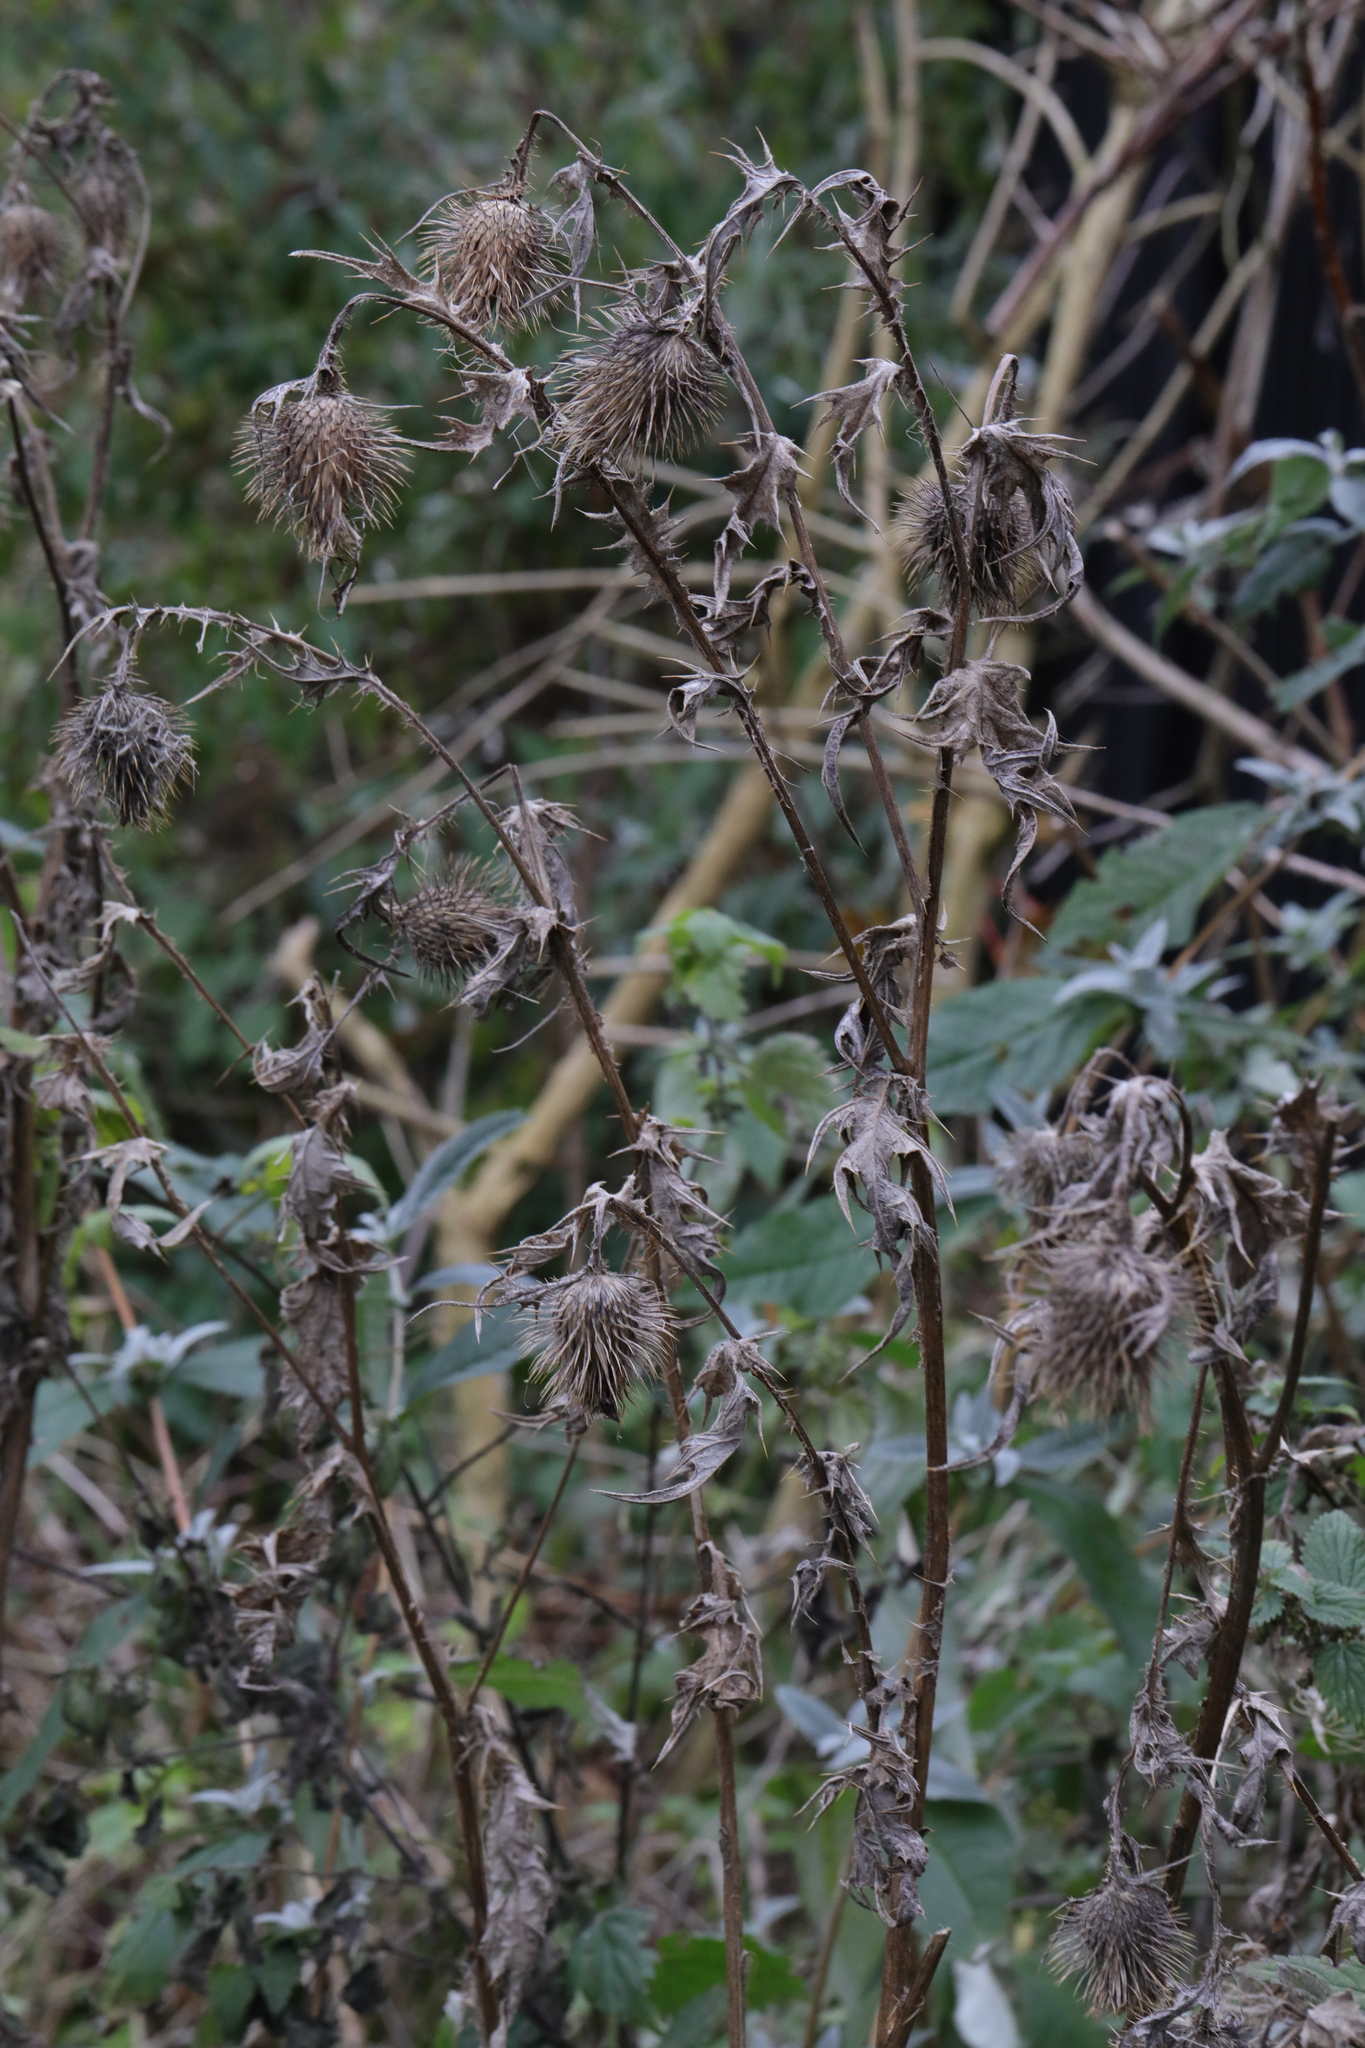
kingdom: Plantae
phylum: Tracheophyta
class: Magnoliopsida
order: Asterales
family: Asteraceae
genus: Cirsium
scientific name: Cirsium vulgare
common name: Bull thistle
